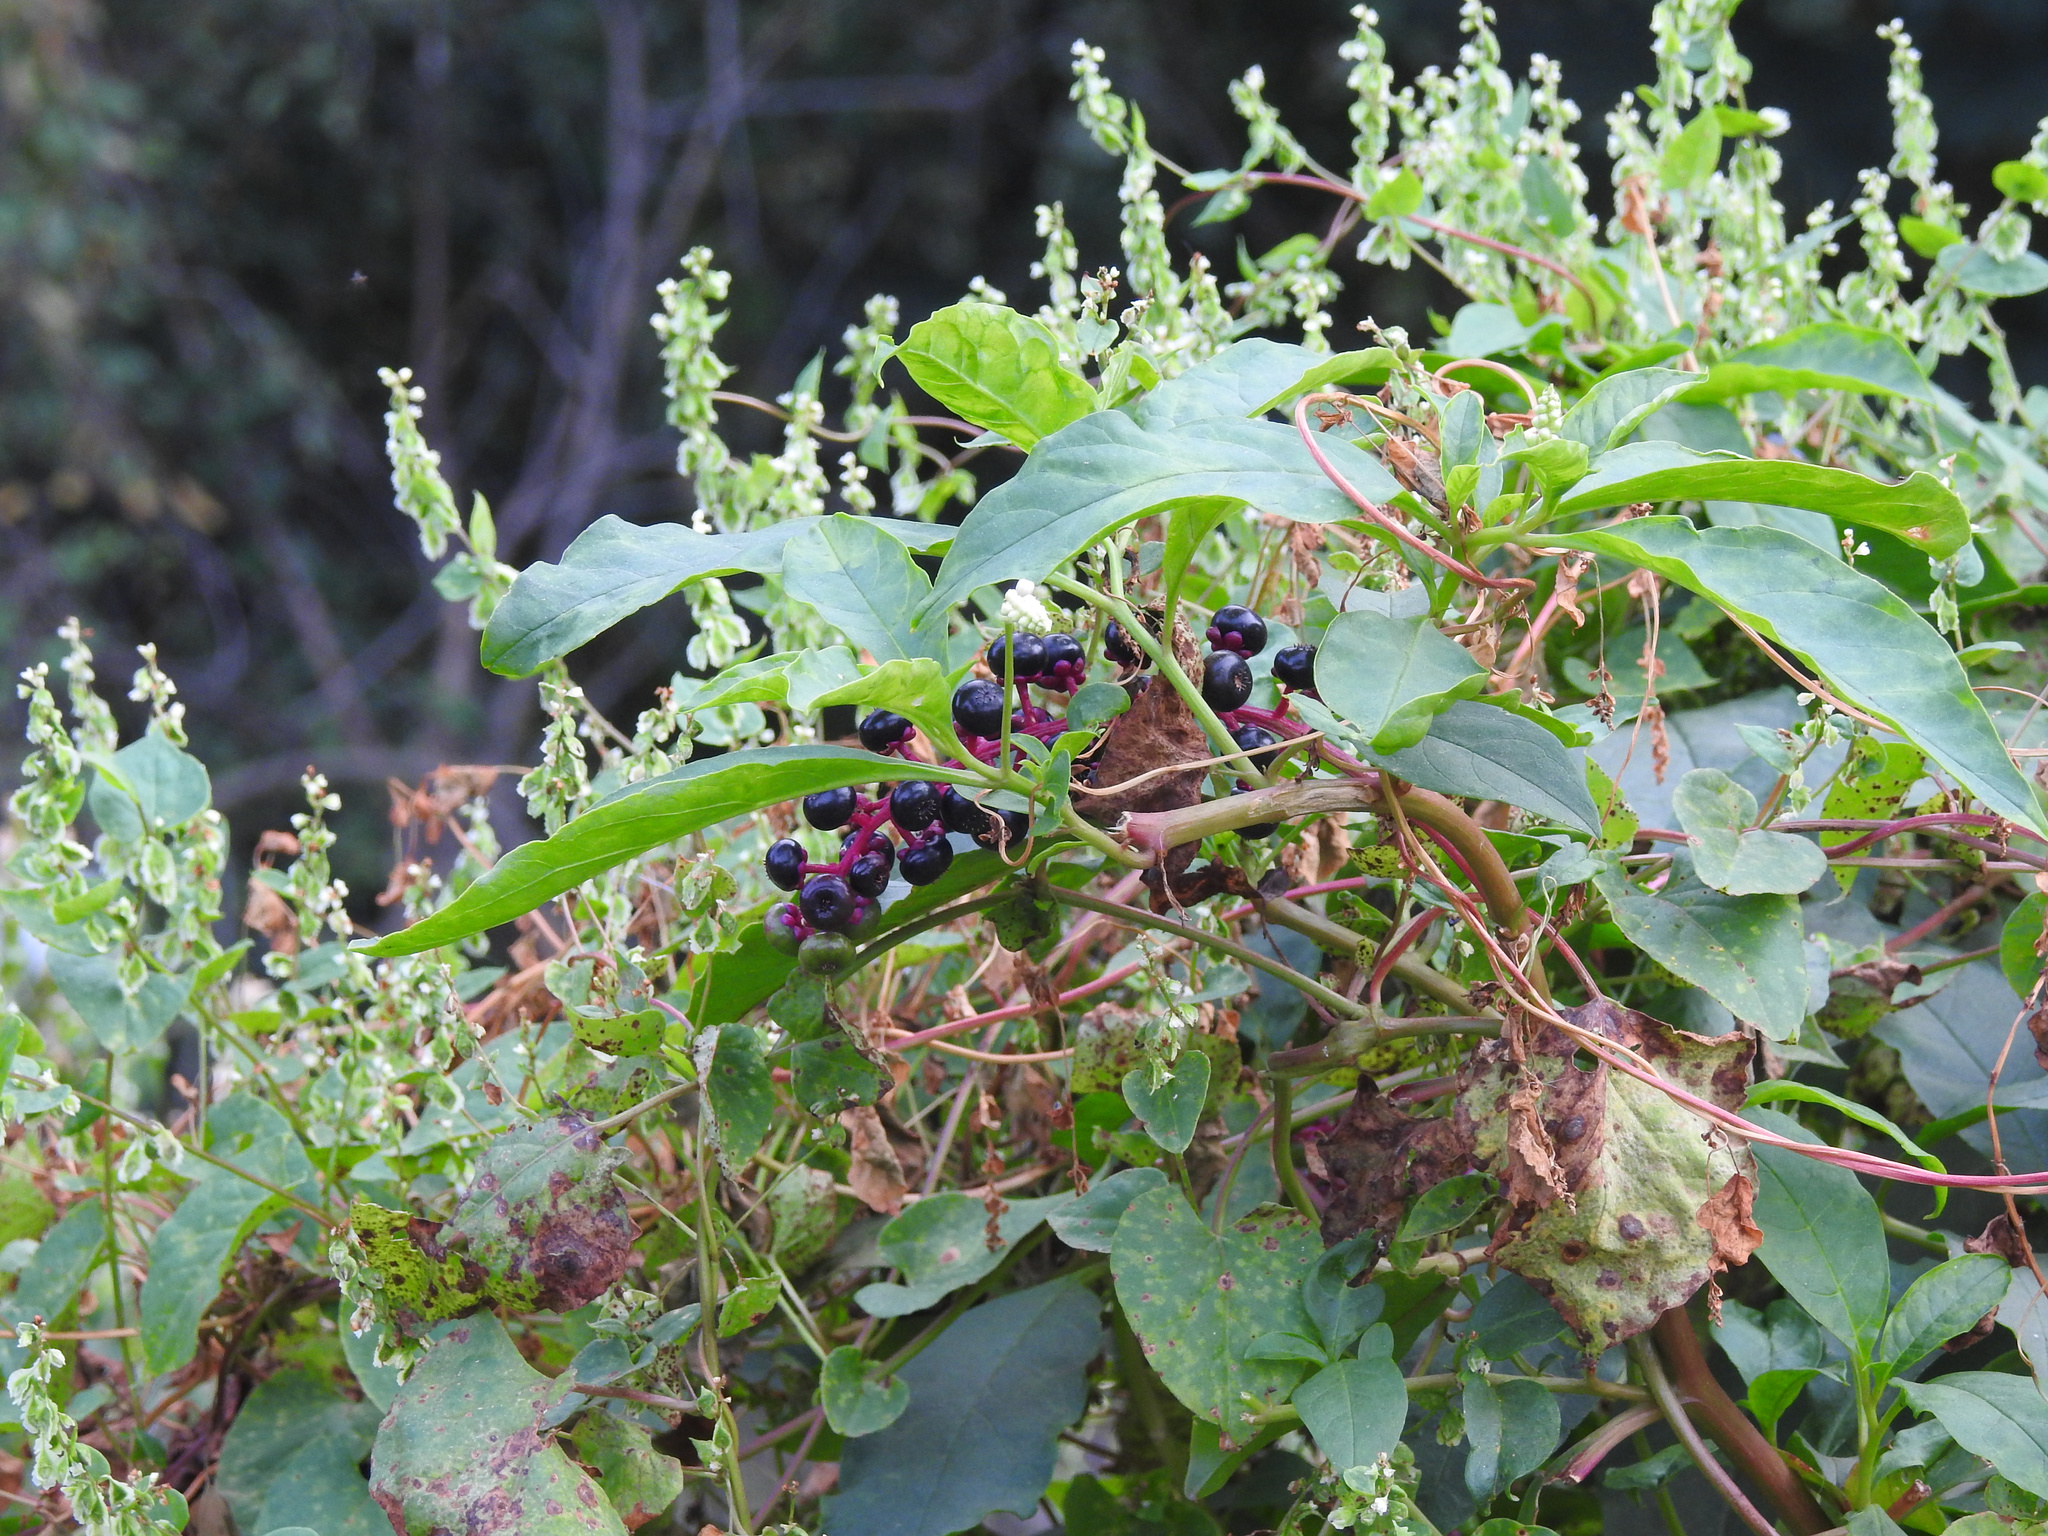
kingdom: Plantae
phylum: Tracheophyta
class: Magnoliopsida
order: Caryophyllales
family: Phytolaccaceae
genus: Phytolacca
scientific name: Phytolacca americana
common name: American pokeweed
